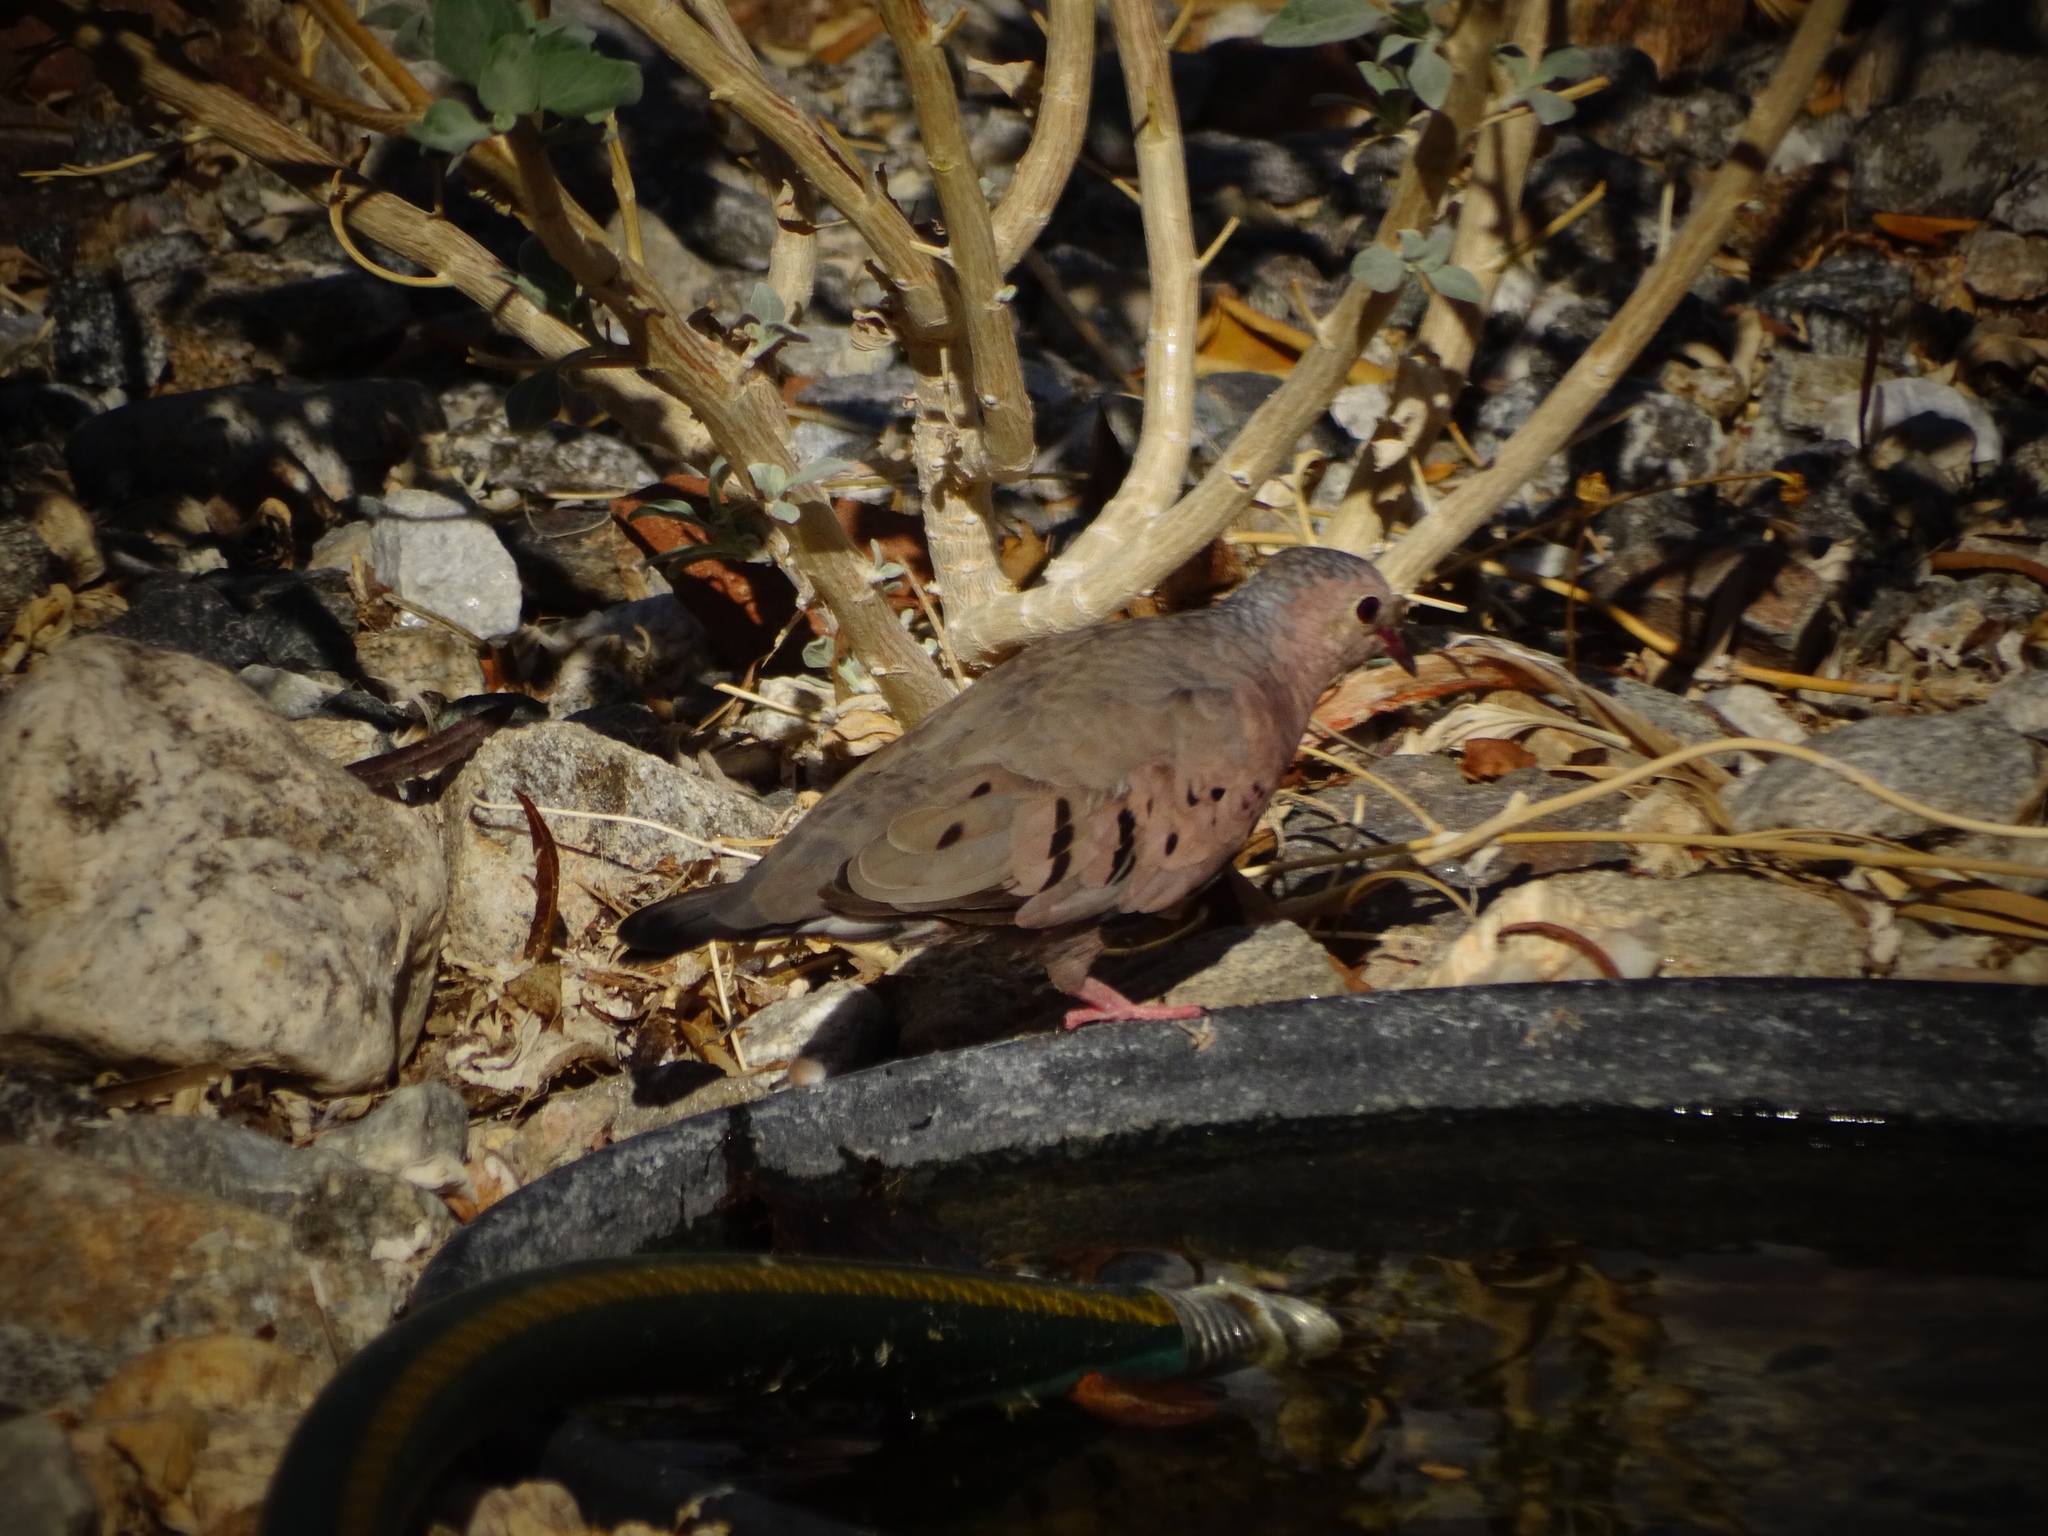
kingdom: Animalia
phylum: Chordata
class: Aves
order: Columbiformes
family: Columbidae
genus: Columbina
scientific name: Columbina passerina
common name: Common ground-dove
